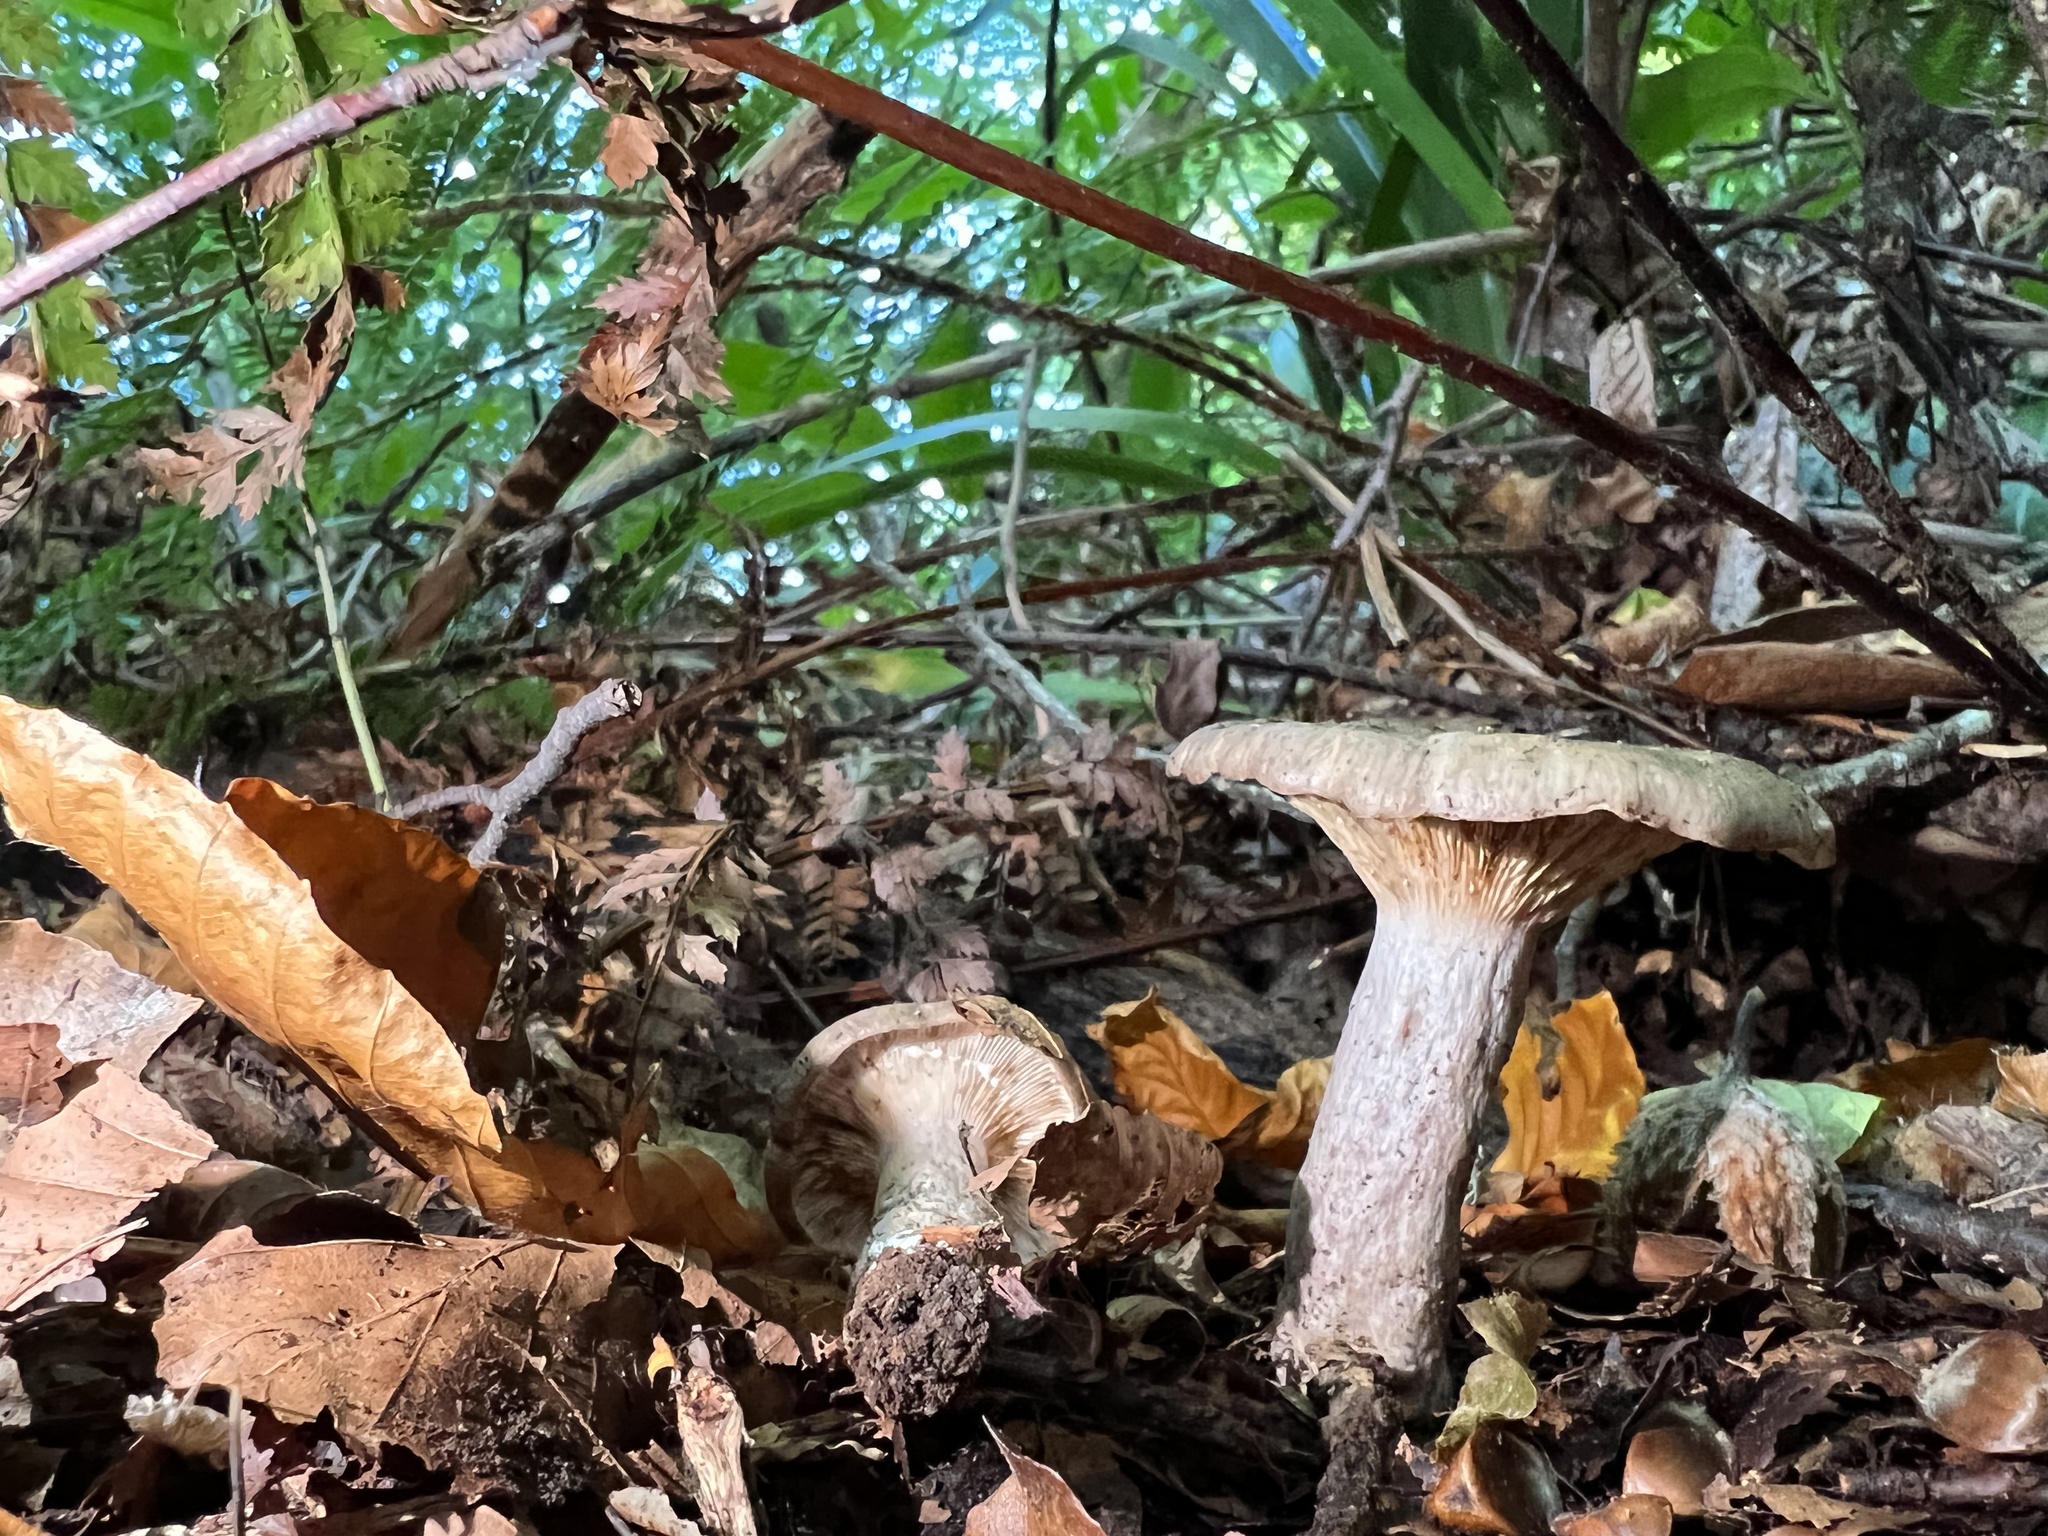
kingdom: Fungi
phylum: Basidiomycota
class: Agaricomycetes
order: Russulales
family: Russulaceae
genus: Lactarius
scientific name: Lactarius blennius
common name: Beech milkcap
